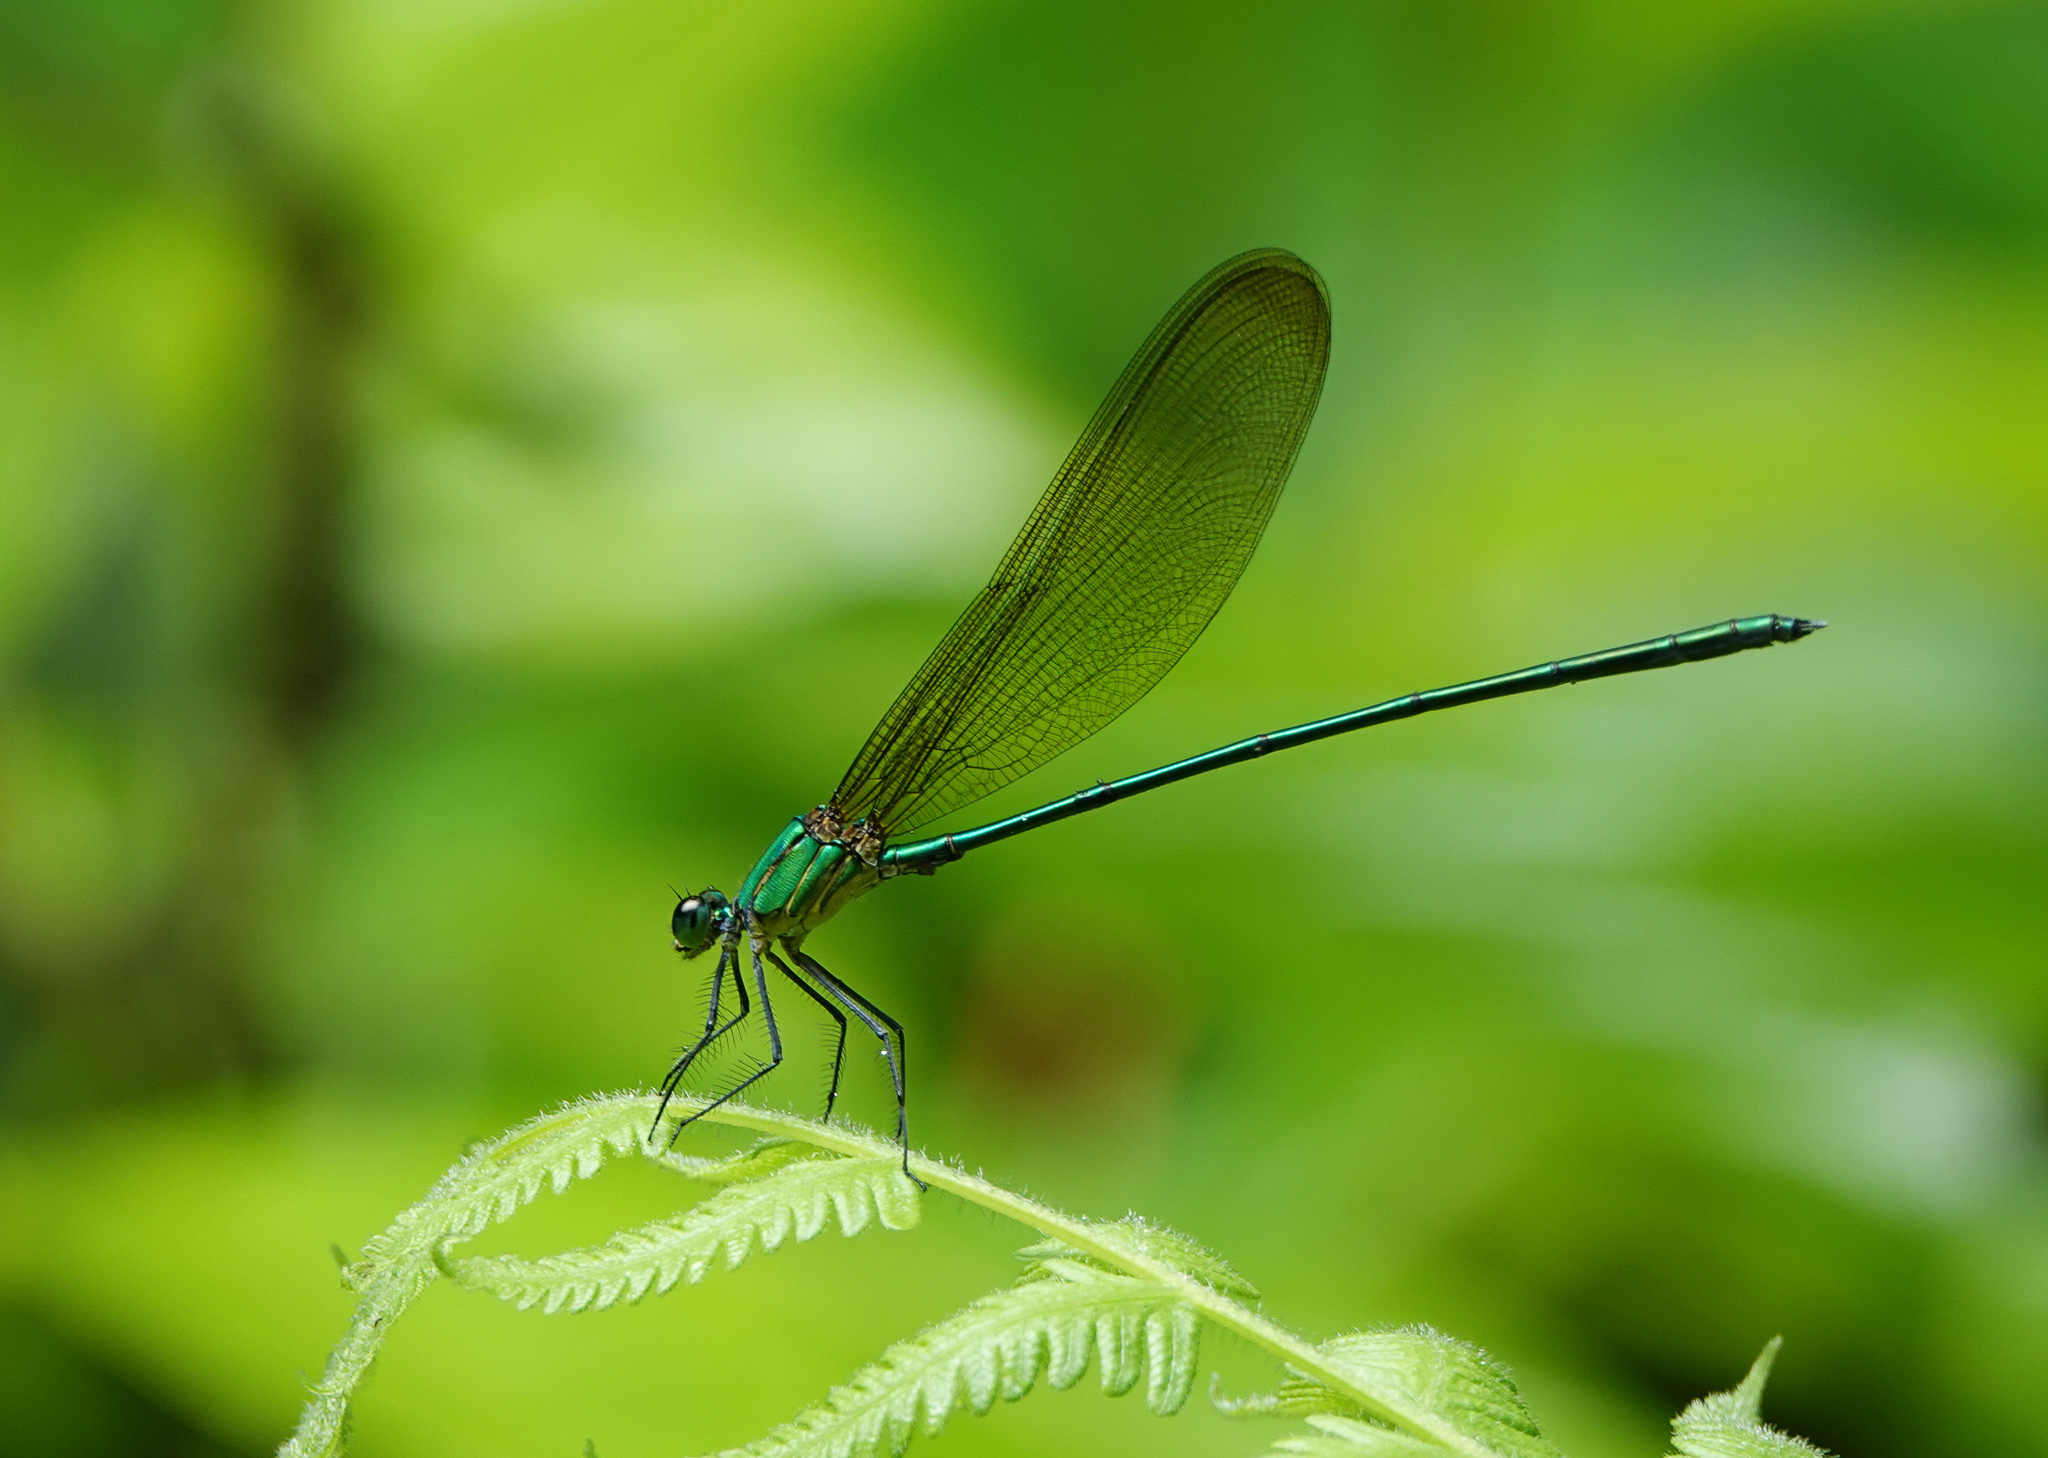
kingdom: Animalia
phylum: Arthropoda
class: Insecta
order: Odonata
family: Calopterygidae
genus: Vestalis
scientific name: Vestalis gracilis
